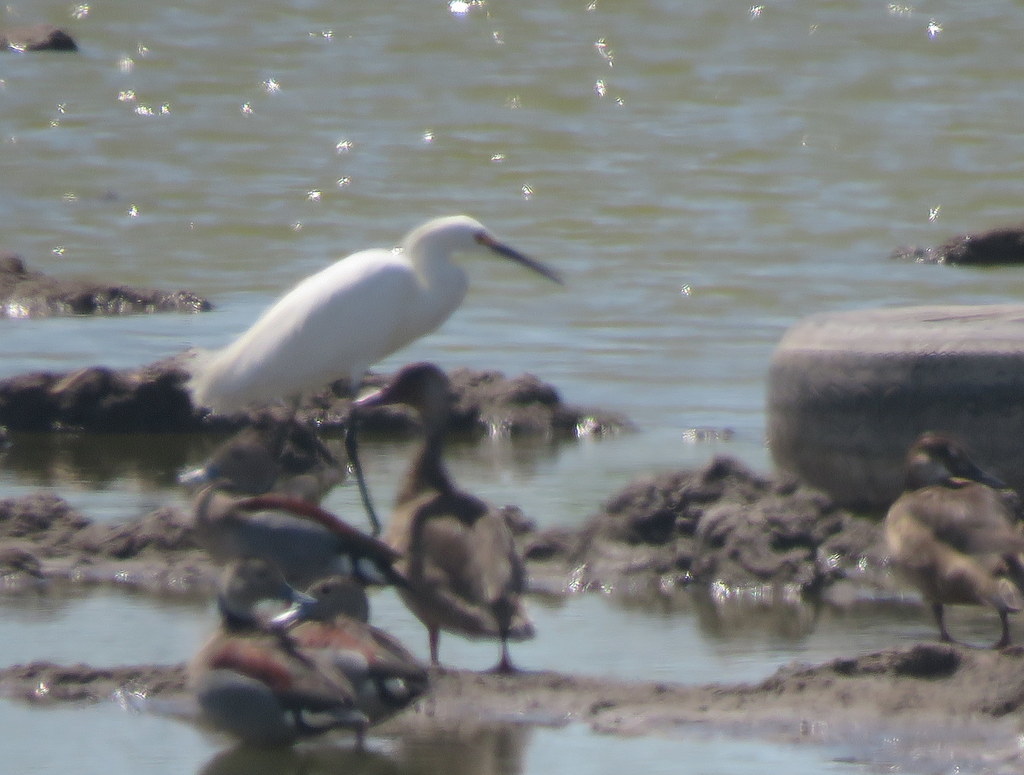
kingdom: Animalia
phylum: Chordata
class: Aves
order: Pelecaniformes
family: Ardeidae
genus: Egretta
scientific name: Egretta thula
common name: Snowy egret
